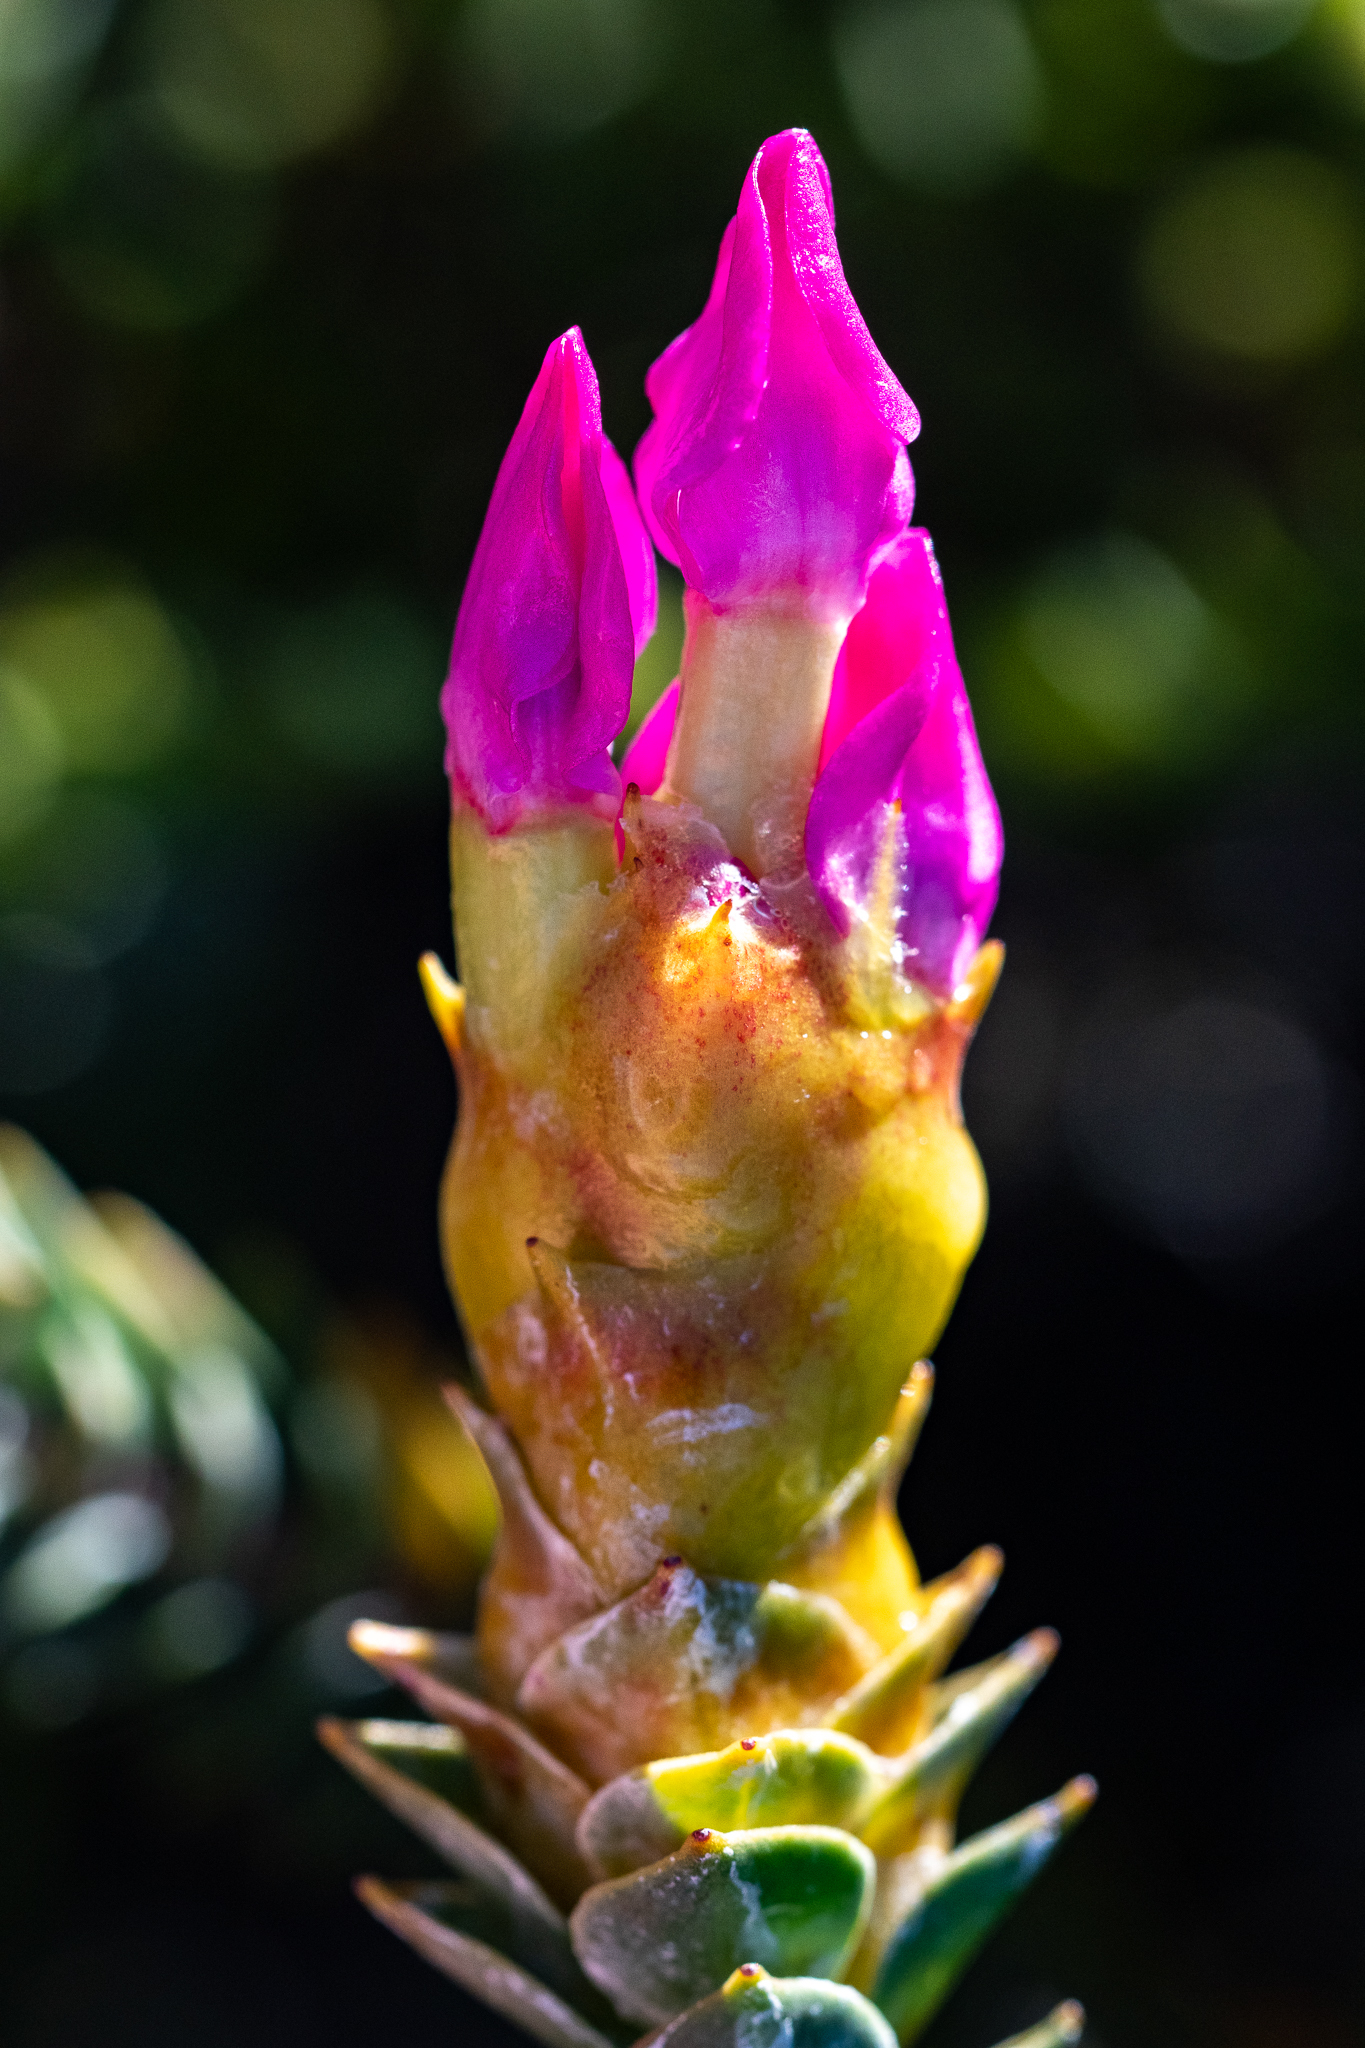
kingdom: Plantae
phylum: Tracheophyta
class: Magnoliopsida
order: Myrtales
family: Penaeaceae
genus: Saltera
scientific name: Saltera sarcocolla
